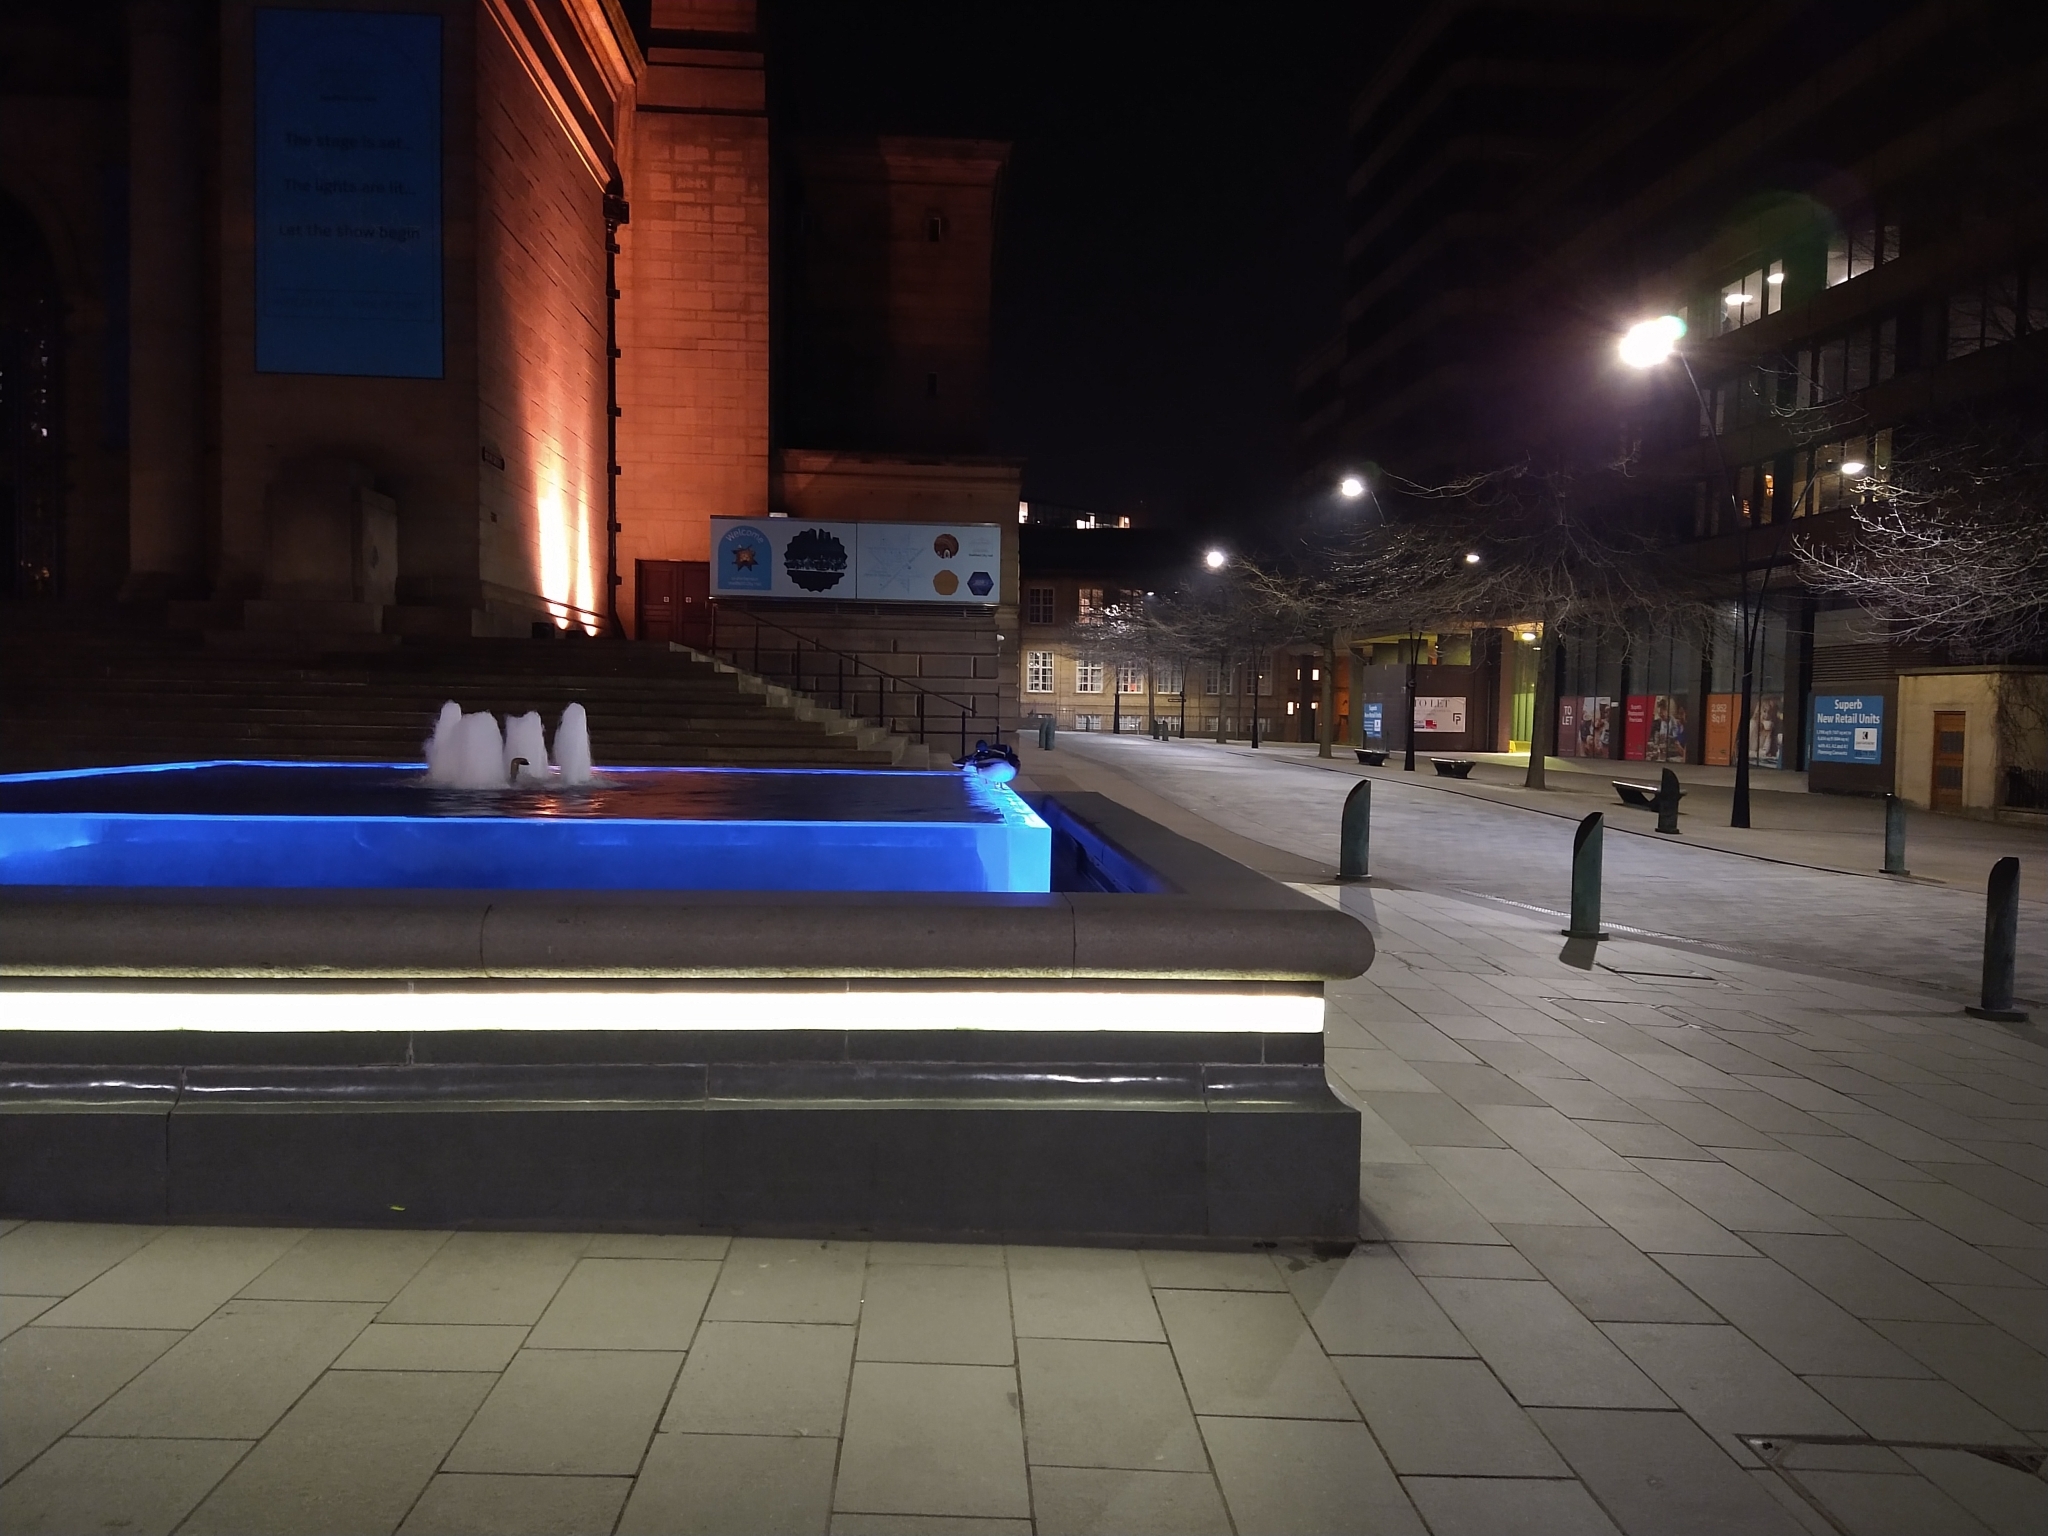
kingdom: Animalia
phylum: Chordata
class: Aves
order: Anseriformes
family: Anatidae
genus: Anas
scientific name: Anas platyrhynchos
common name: Mallard
